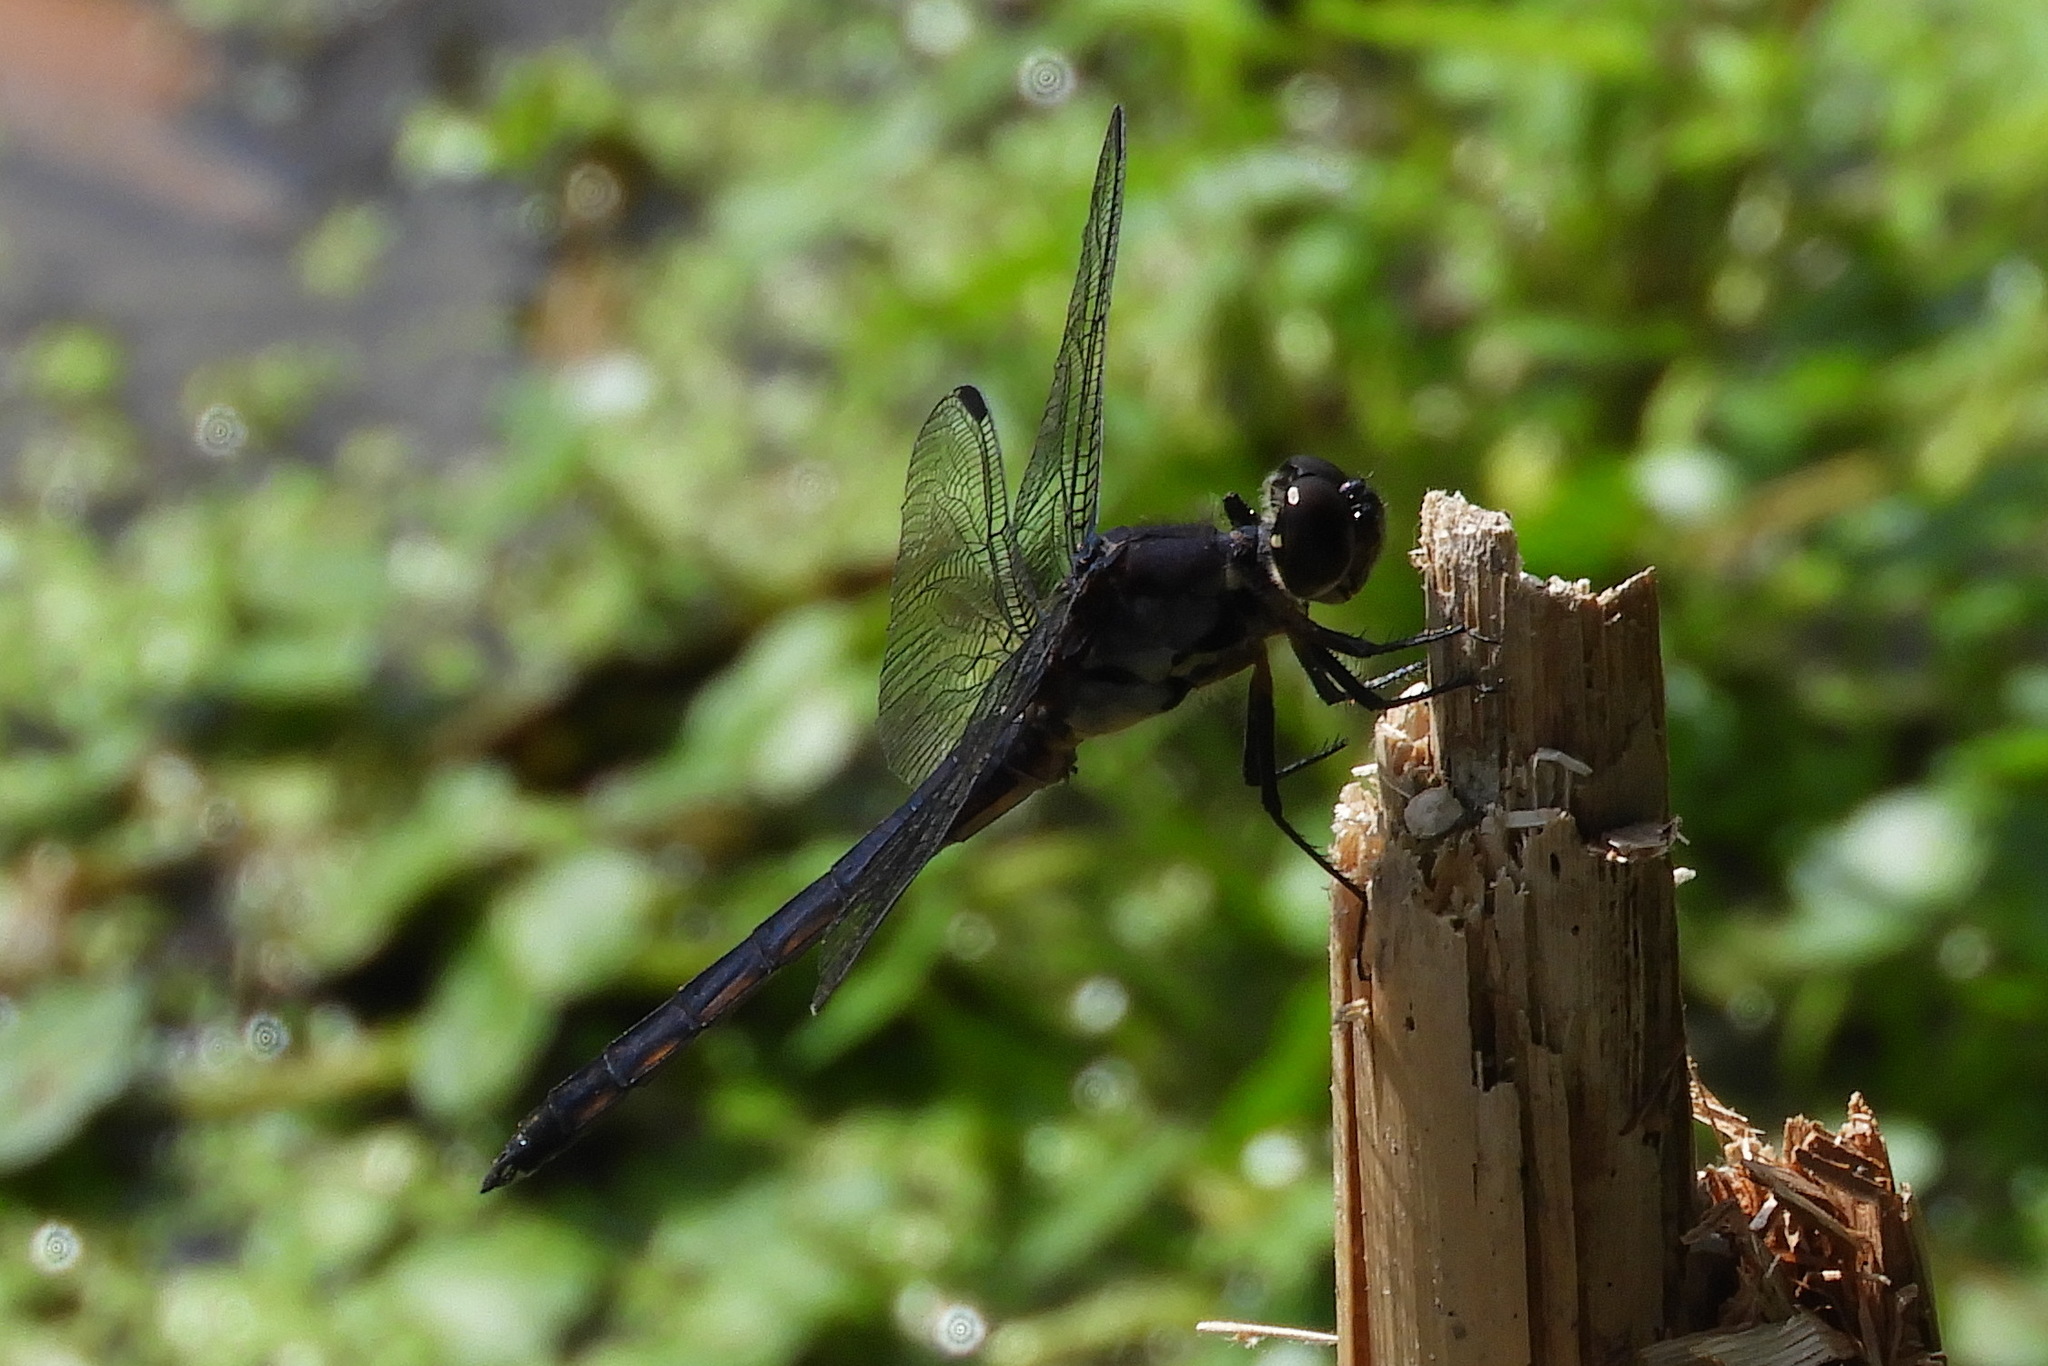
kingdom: Animalia
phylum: Arthropoda
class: Insecta
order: Odonata
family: Libellulidae
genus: Libellula
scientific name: Libellula incesta
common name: Slaty skimmer
